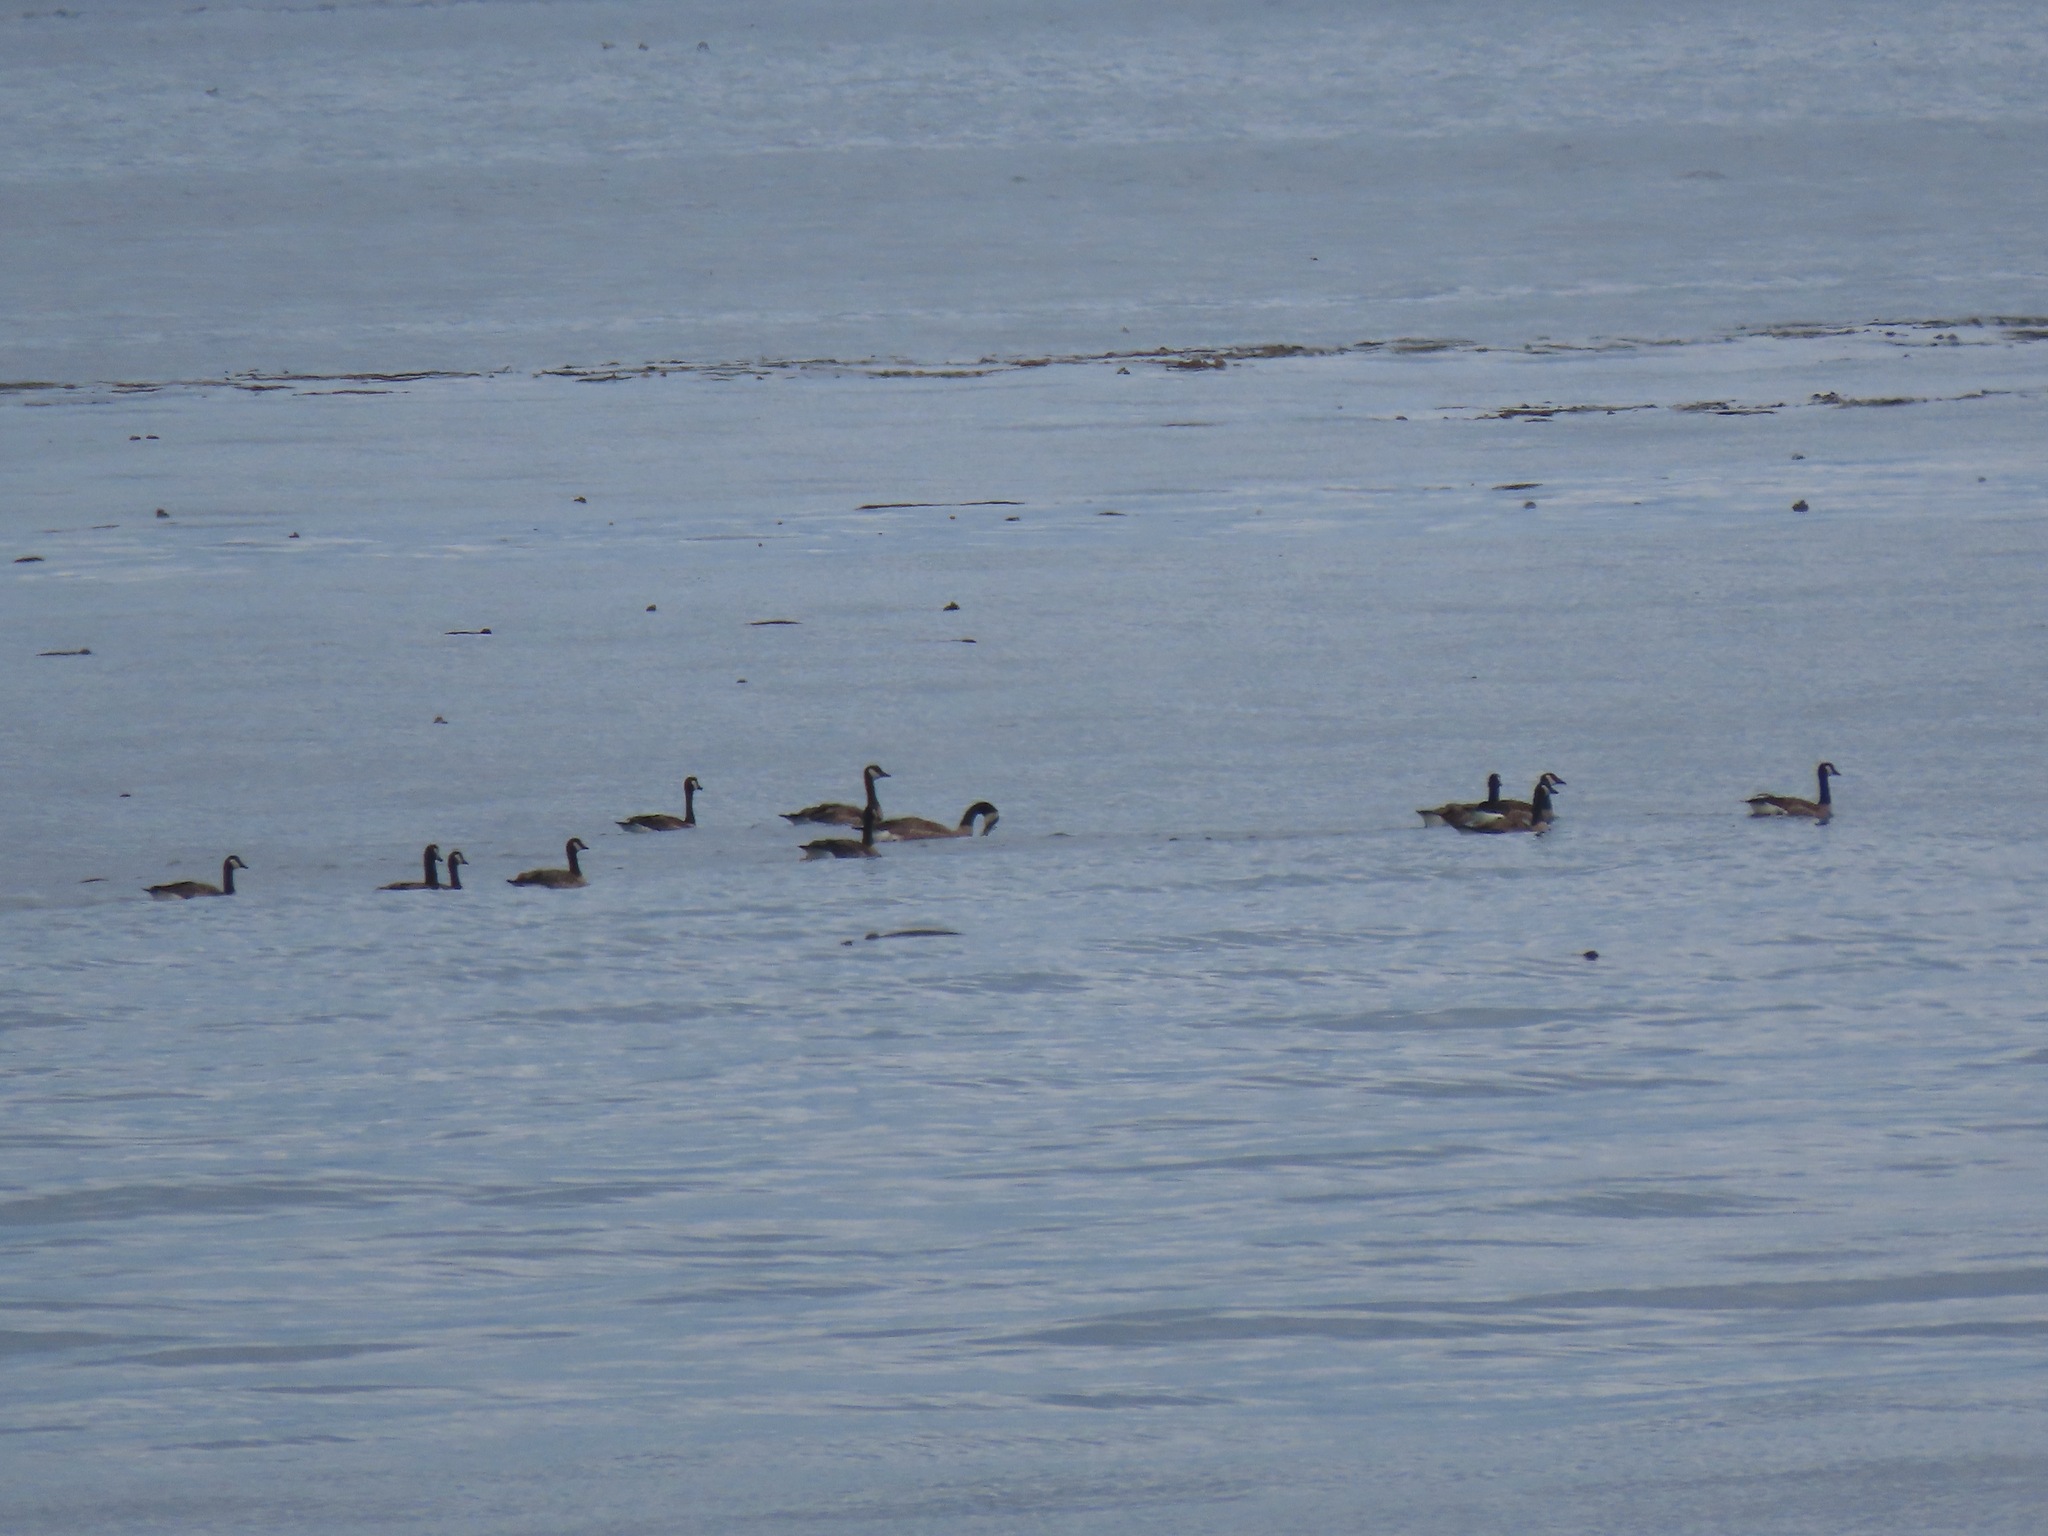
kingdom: Animalia
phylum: Chordata
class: Aves
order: Anseriformes
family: Anatidae
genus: Branta
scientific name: Branta canadensis
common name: Canada goose
